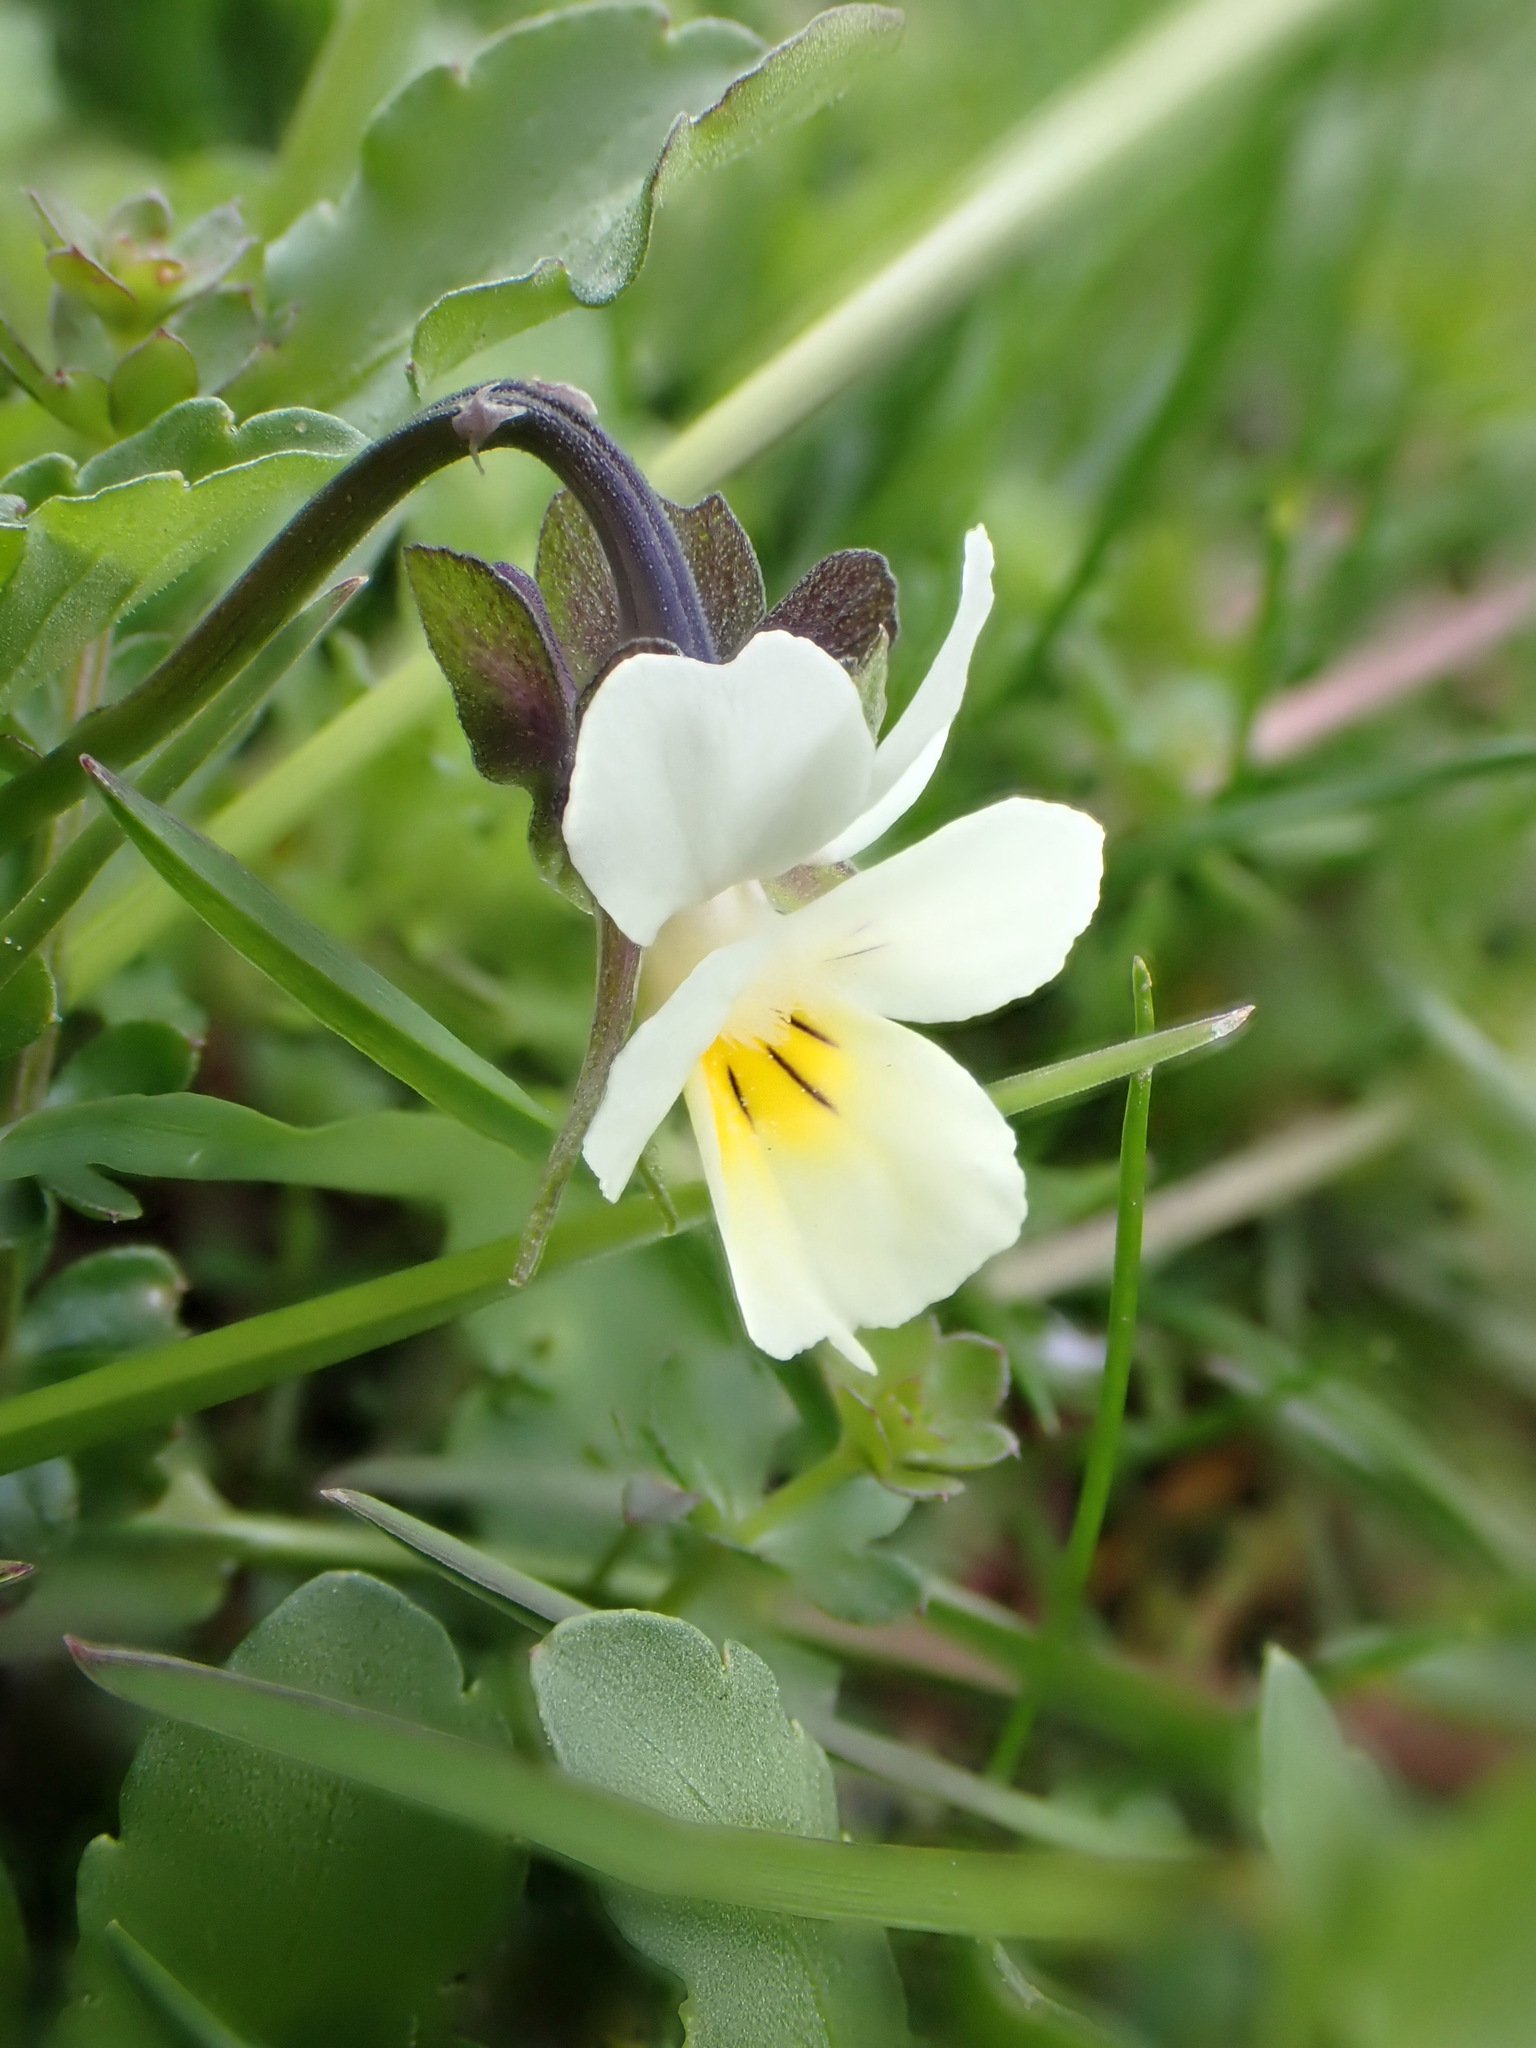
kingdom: Plantae
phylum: Tracheophyta
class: Magnoliopsida
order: Malpighiales
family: Violaceae
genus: Viola
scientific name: Viola arvensis
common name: Field pansy
